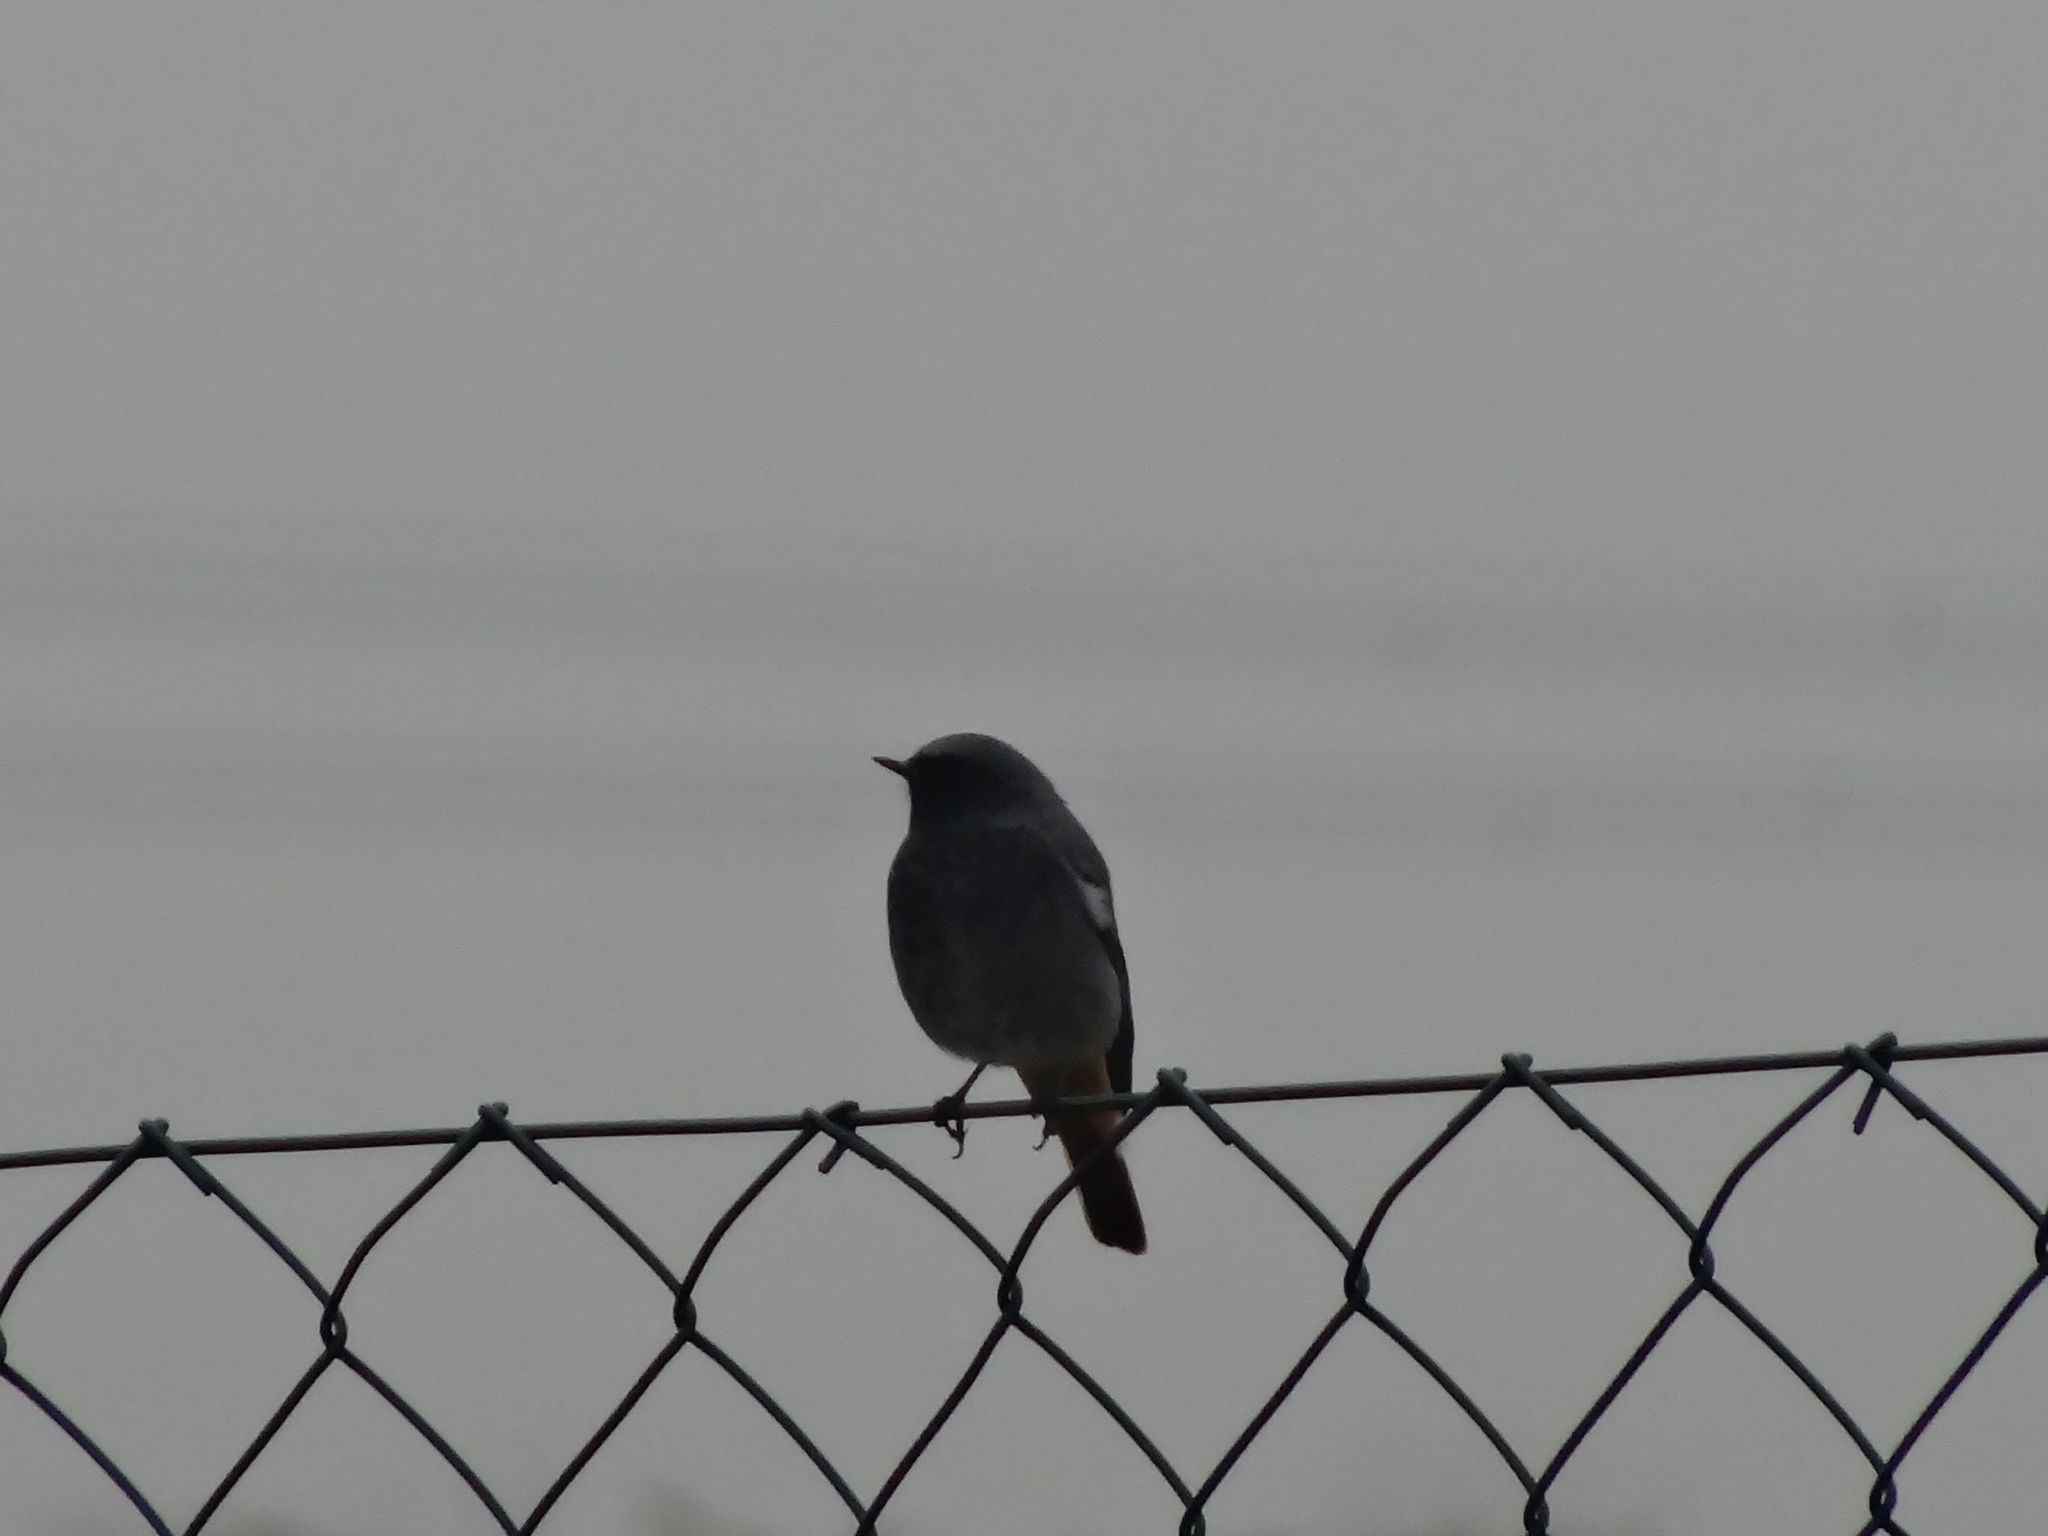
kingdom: Animalia
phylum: Chordata
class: Aves
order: Passeriformes
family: Muscicapidae
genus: Phoenicurus
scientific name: Phoenicurus ochruros
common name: Black redstart
